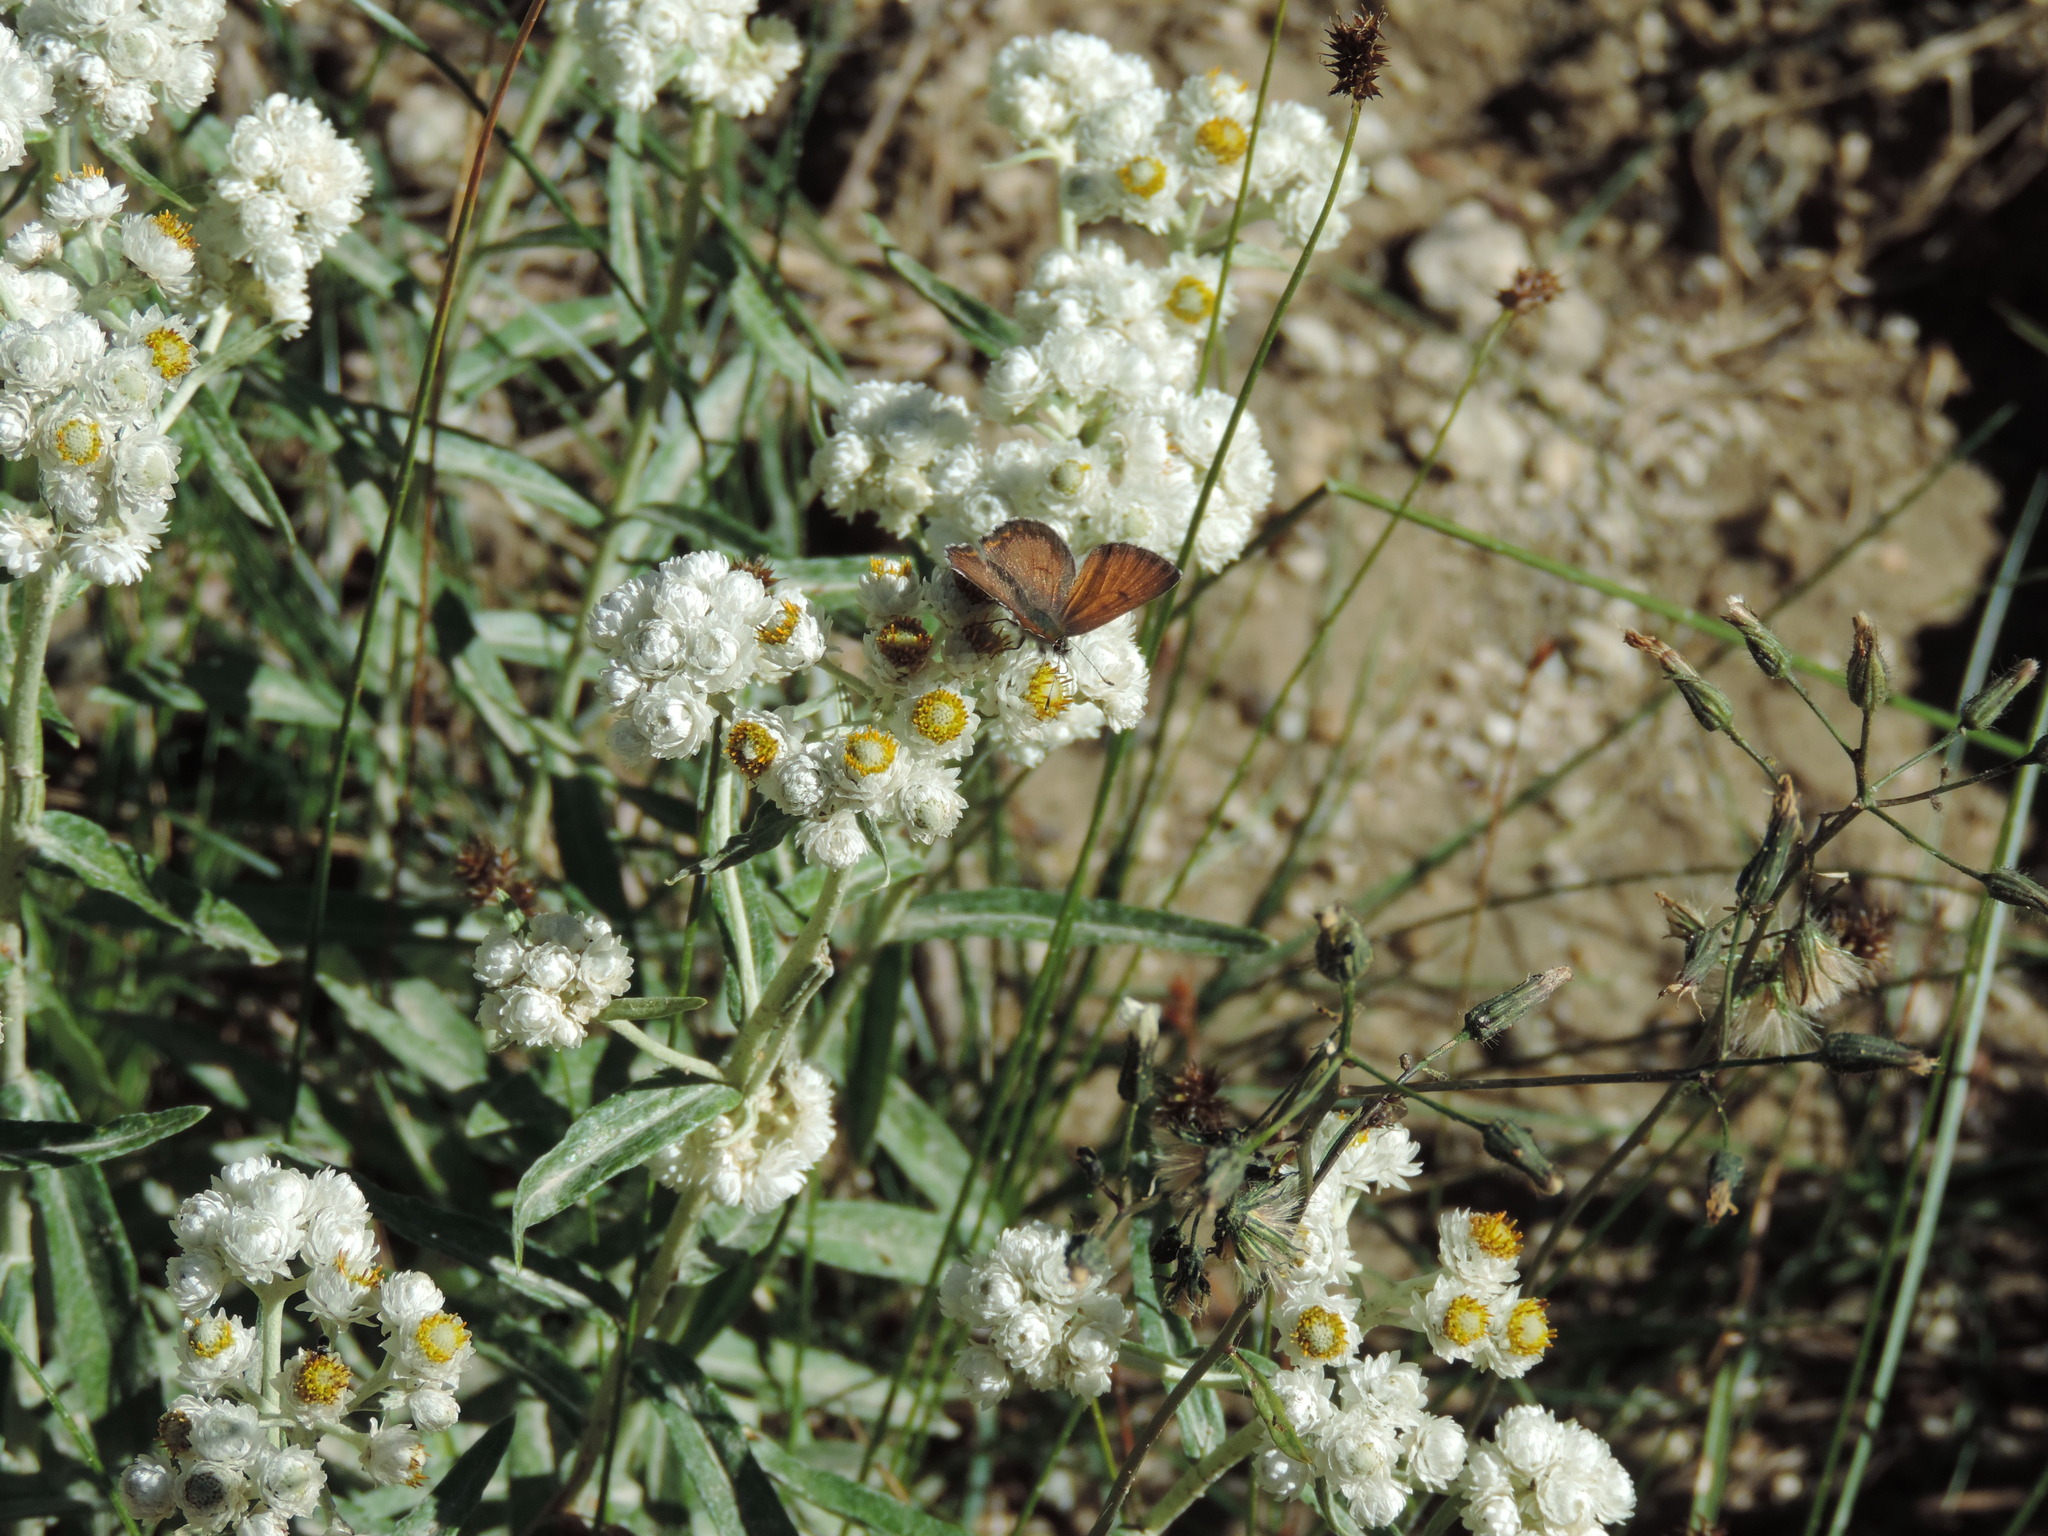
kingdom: Animalia
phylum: Arthropoda
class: Insecta
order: Lepidoptera
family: Lycaenidae
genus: Tharsalea
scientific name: Tharsalea mariposa
